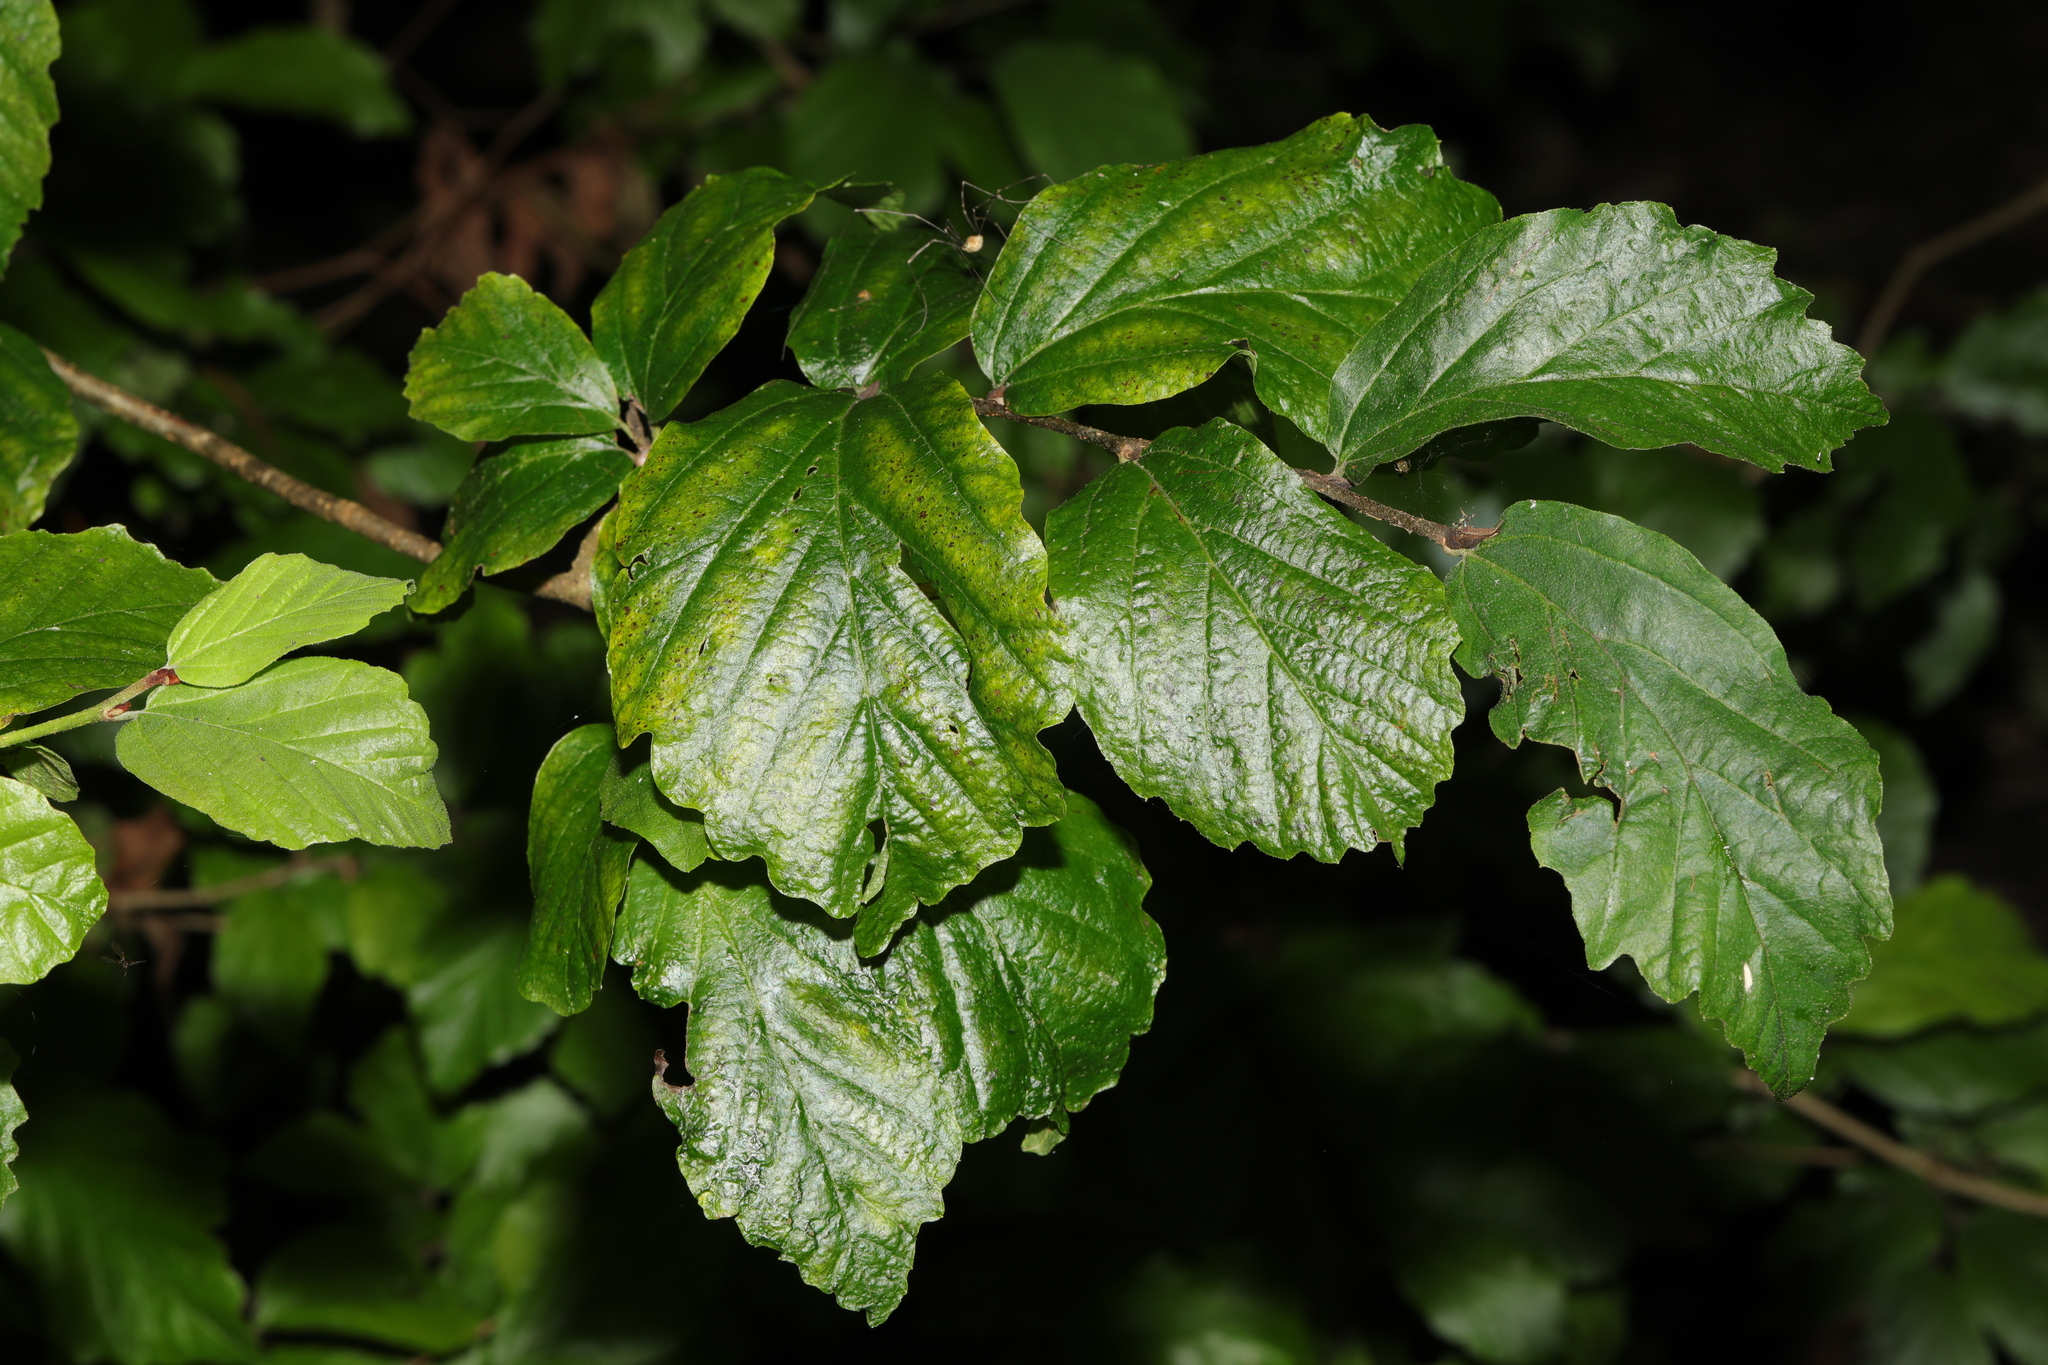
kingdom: Plantae
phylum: Tracheophyta
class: Magnoliopsida
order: Fagales
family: Betulaceae
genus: Corylus
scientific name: Corylus avellana
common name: European hazel
